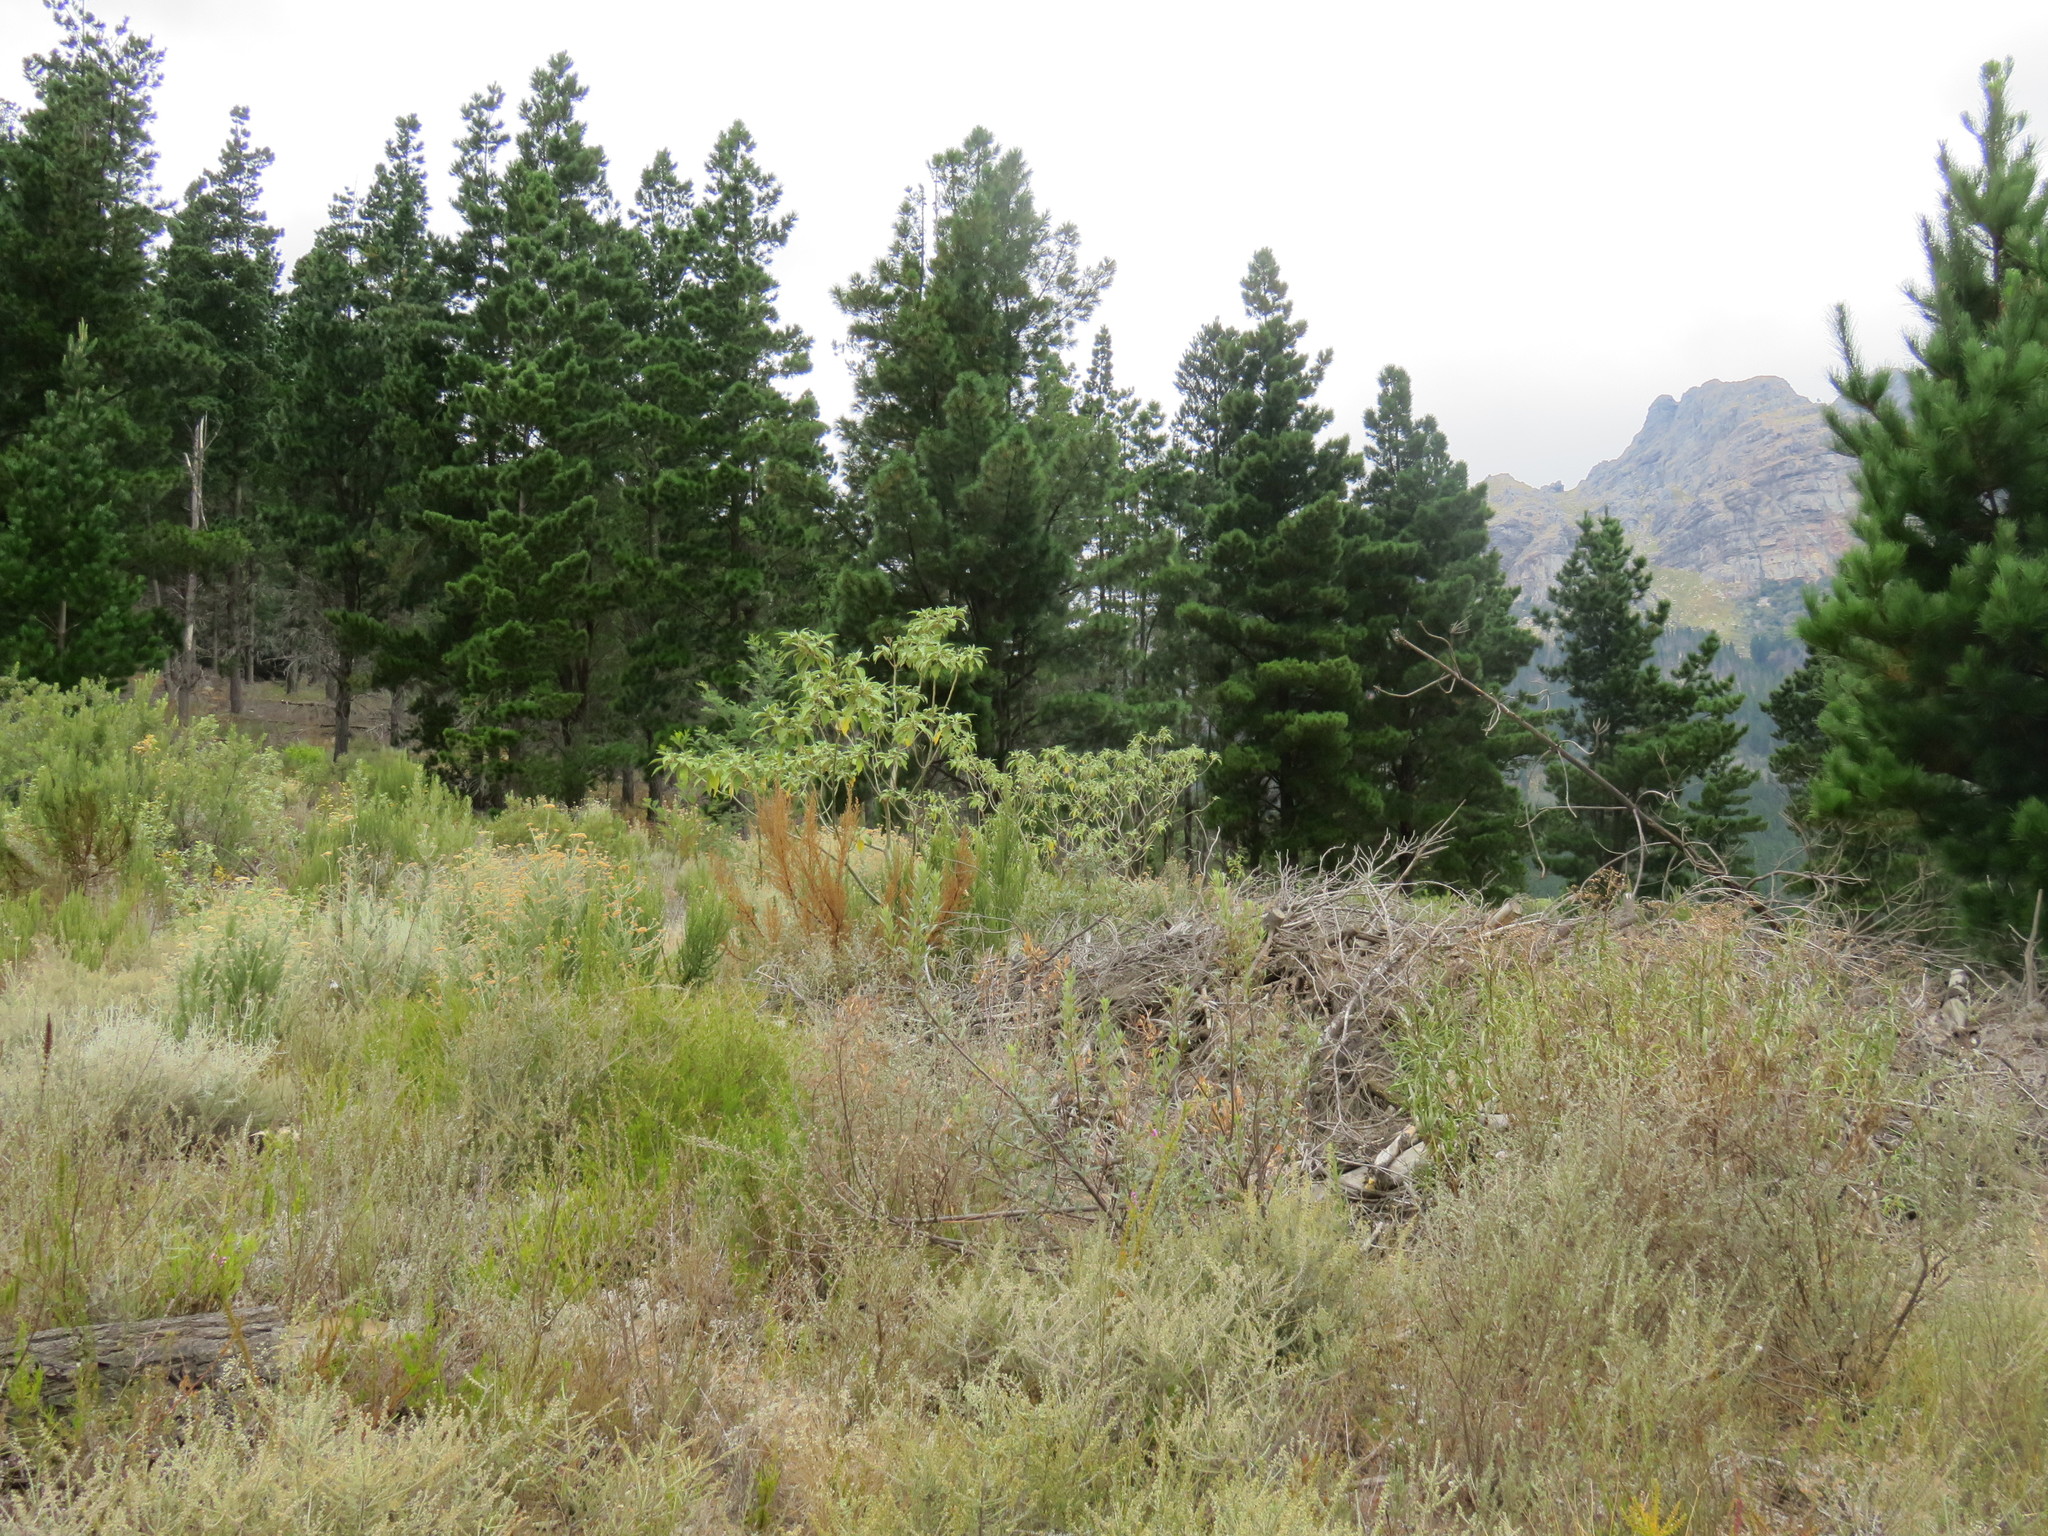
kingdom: Plantae
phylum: Tracheophyta
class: Magnoliopsida
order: Solanales
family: Solanaceae
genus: Solanum
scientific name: Solanum mauritianum
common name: Earleaf nightshade
